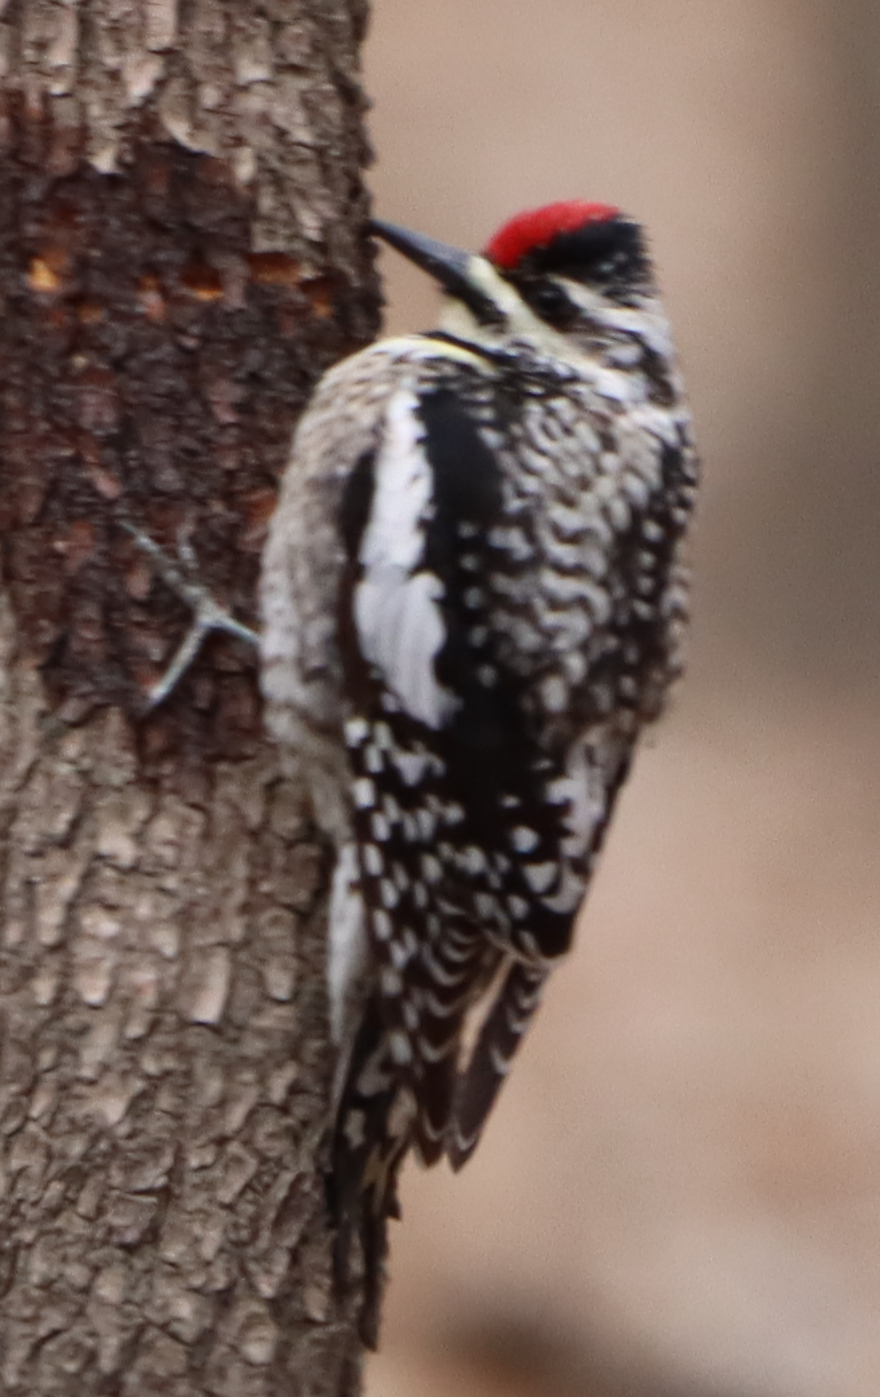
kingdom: Animalia
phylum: Chordata
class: Aves
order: Piciformes
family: Picidae
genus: Sphyrapicus
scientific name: Sphyrapicus varius
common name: Yellow-bellied sapsucker
